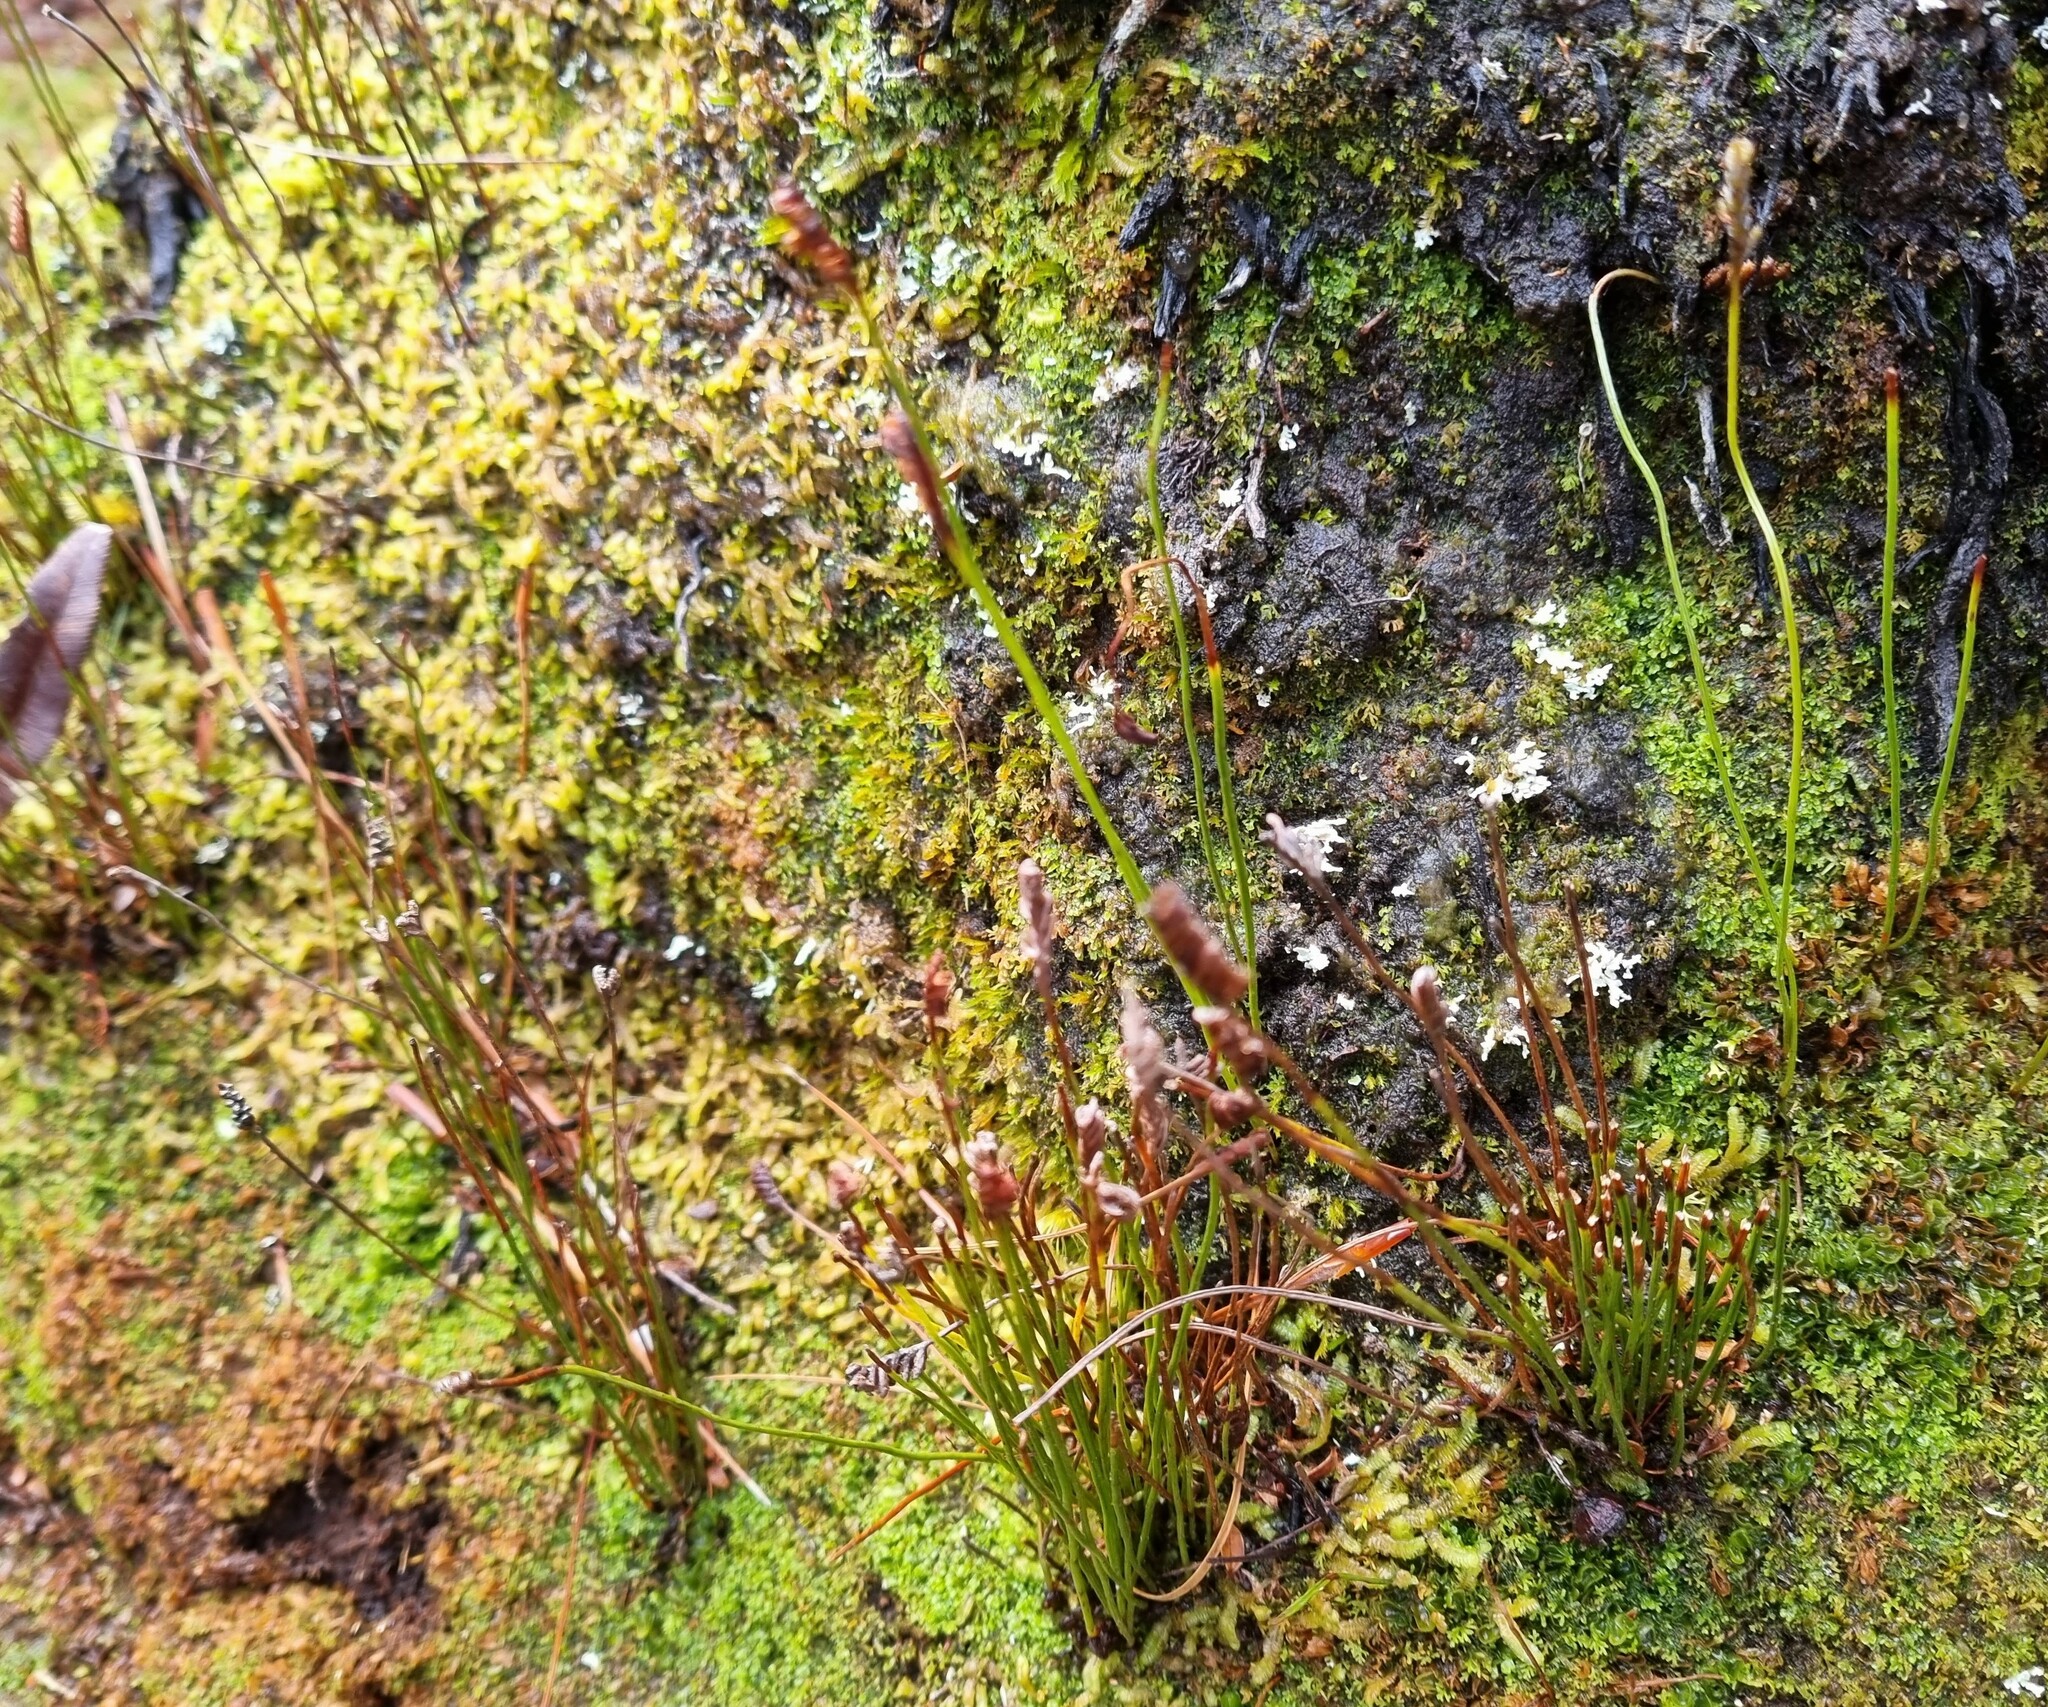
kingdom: Plantae
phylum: Tracheophyta
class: Polypodiopsida
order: Schizaeales
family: Schizaeaceae
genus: Microschizaea
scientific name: Microschizaea australis
